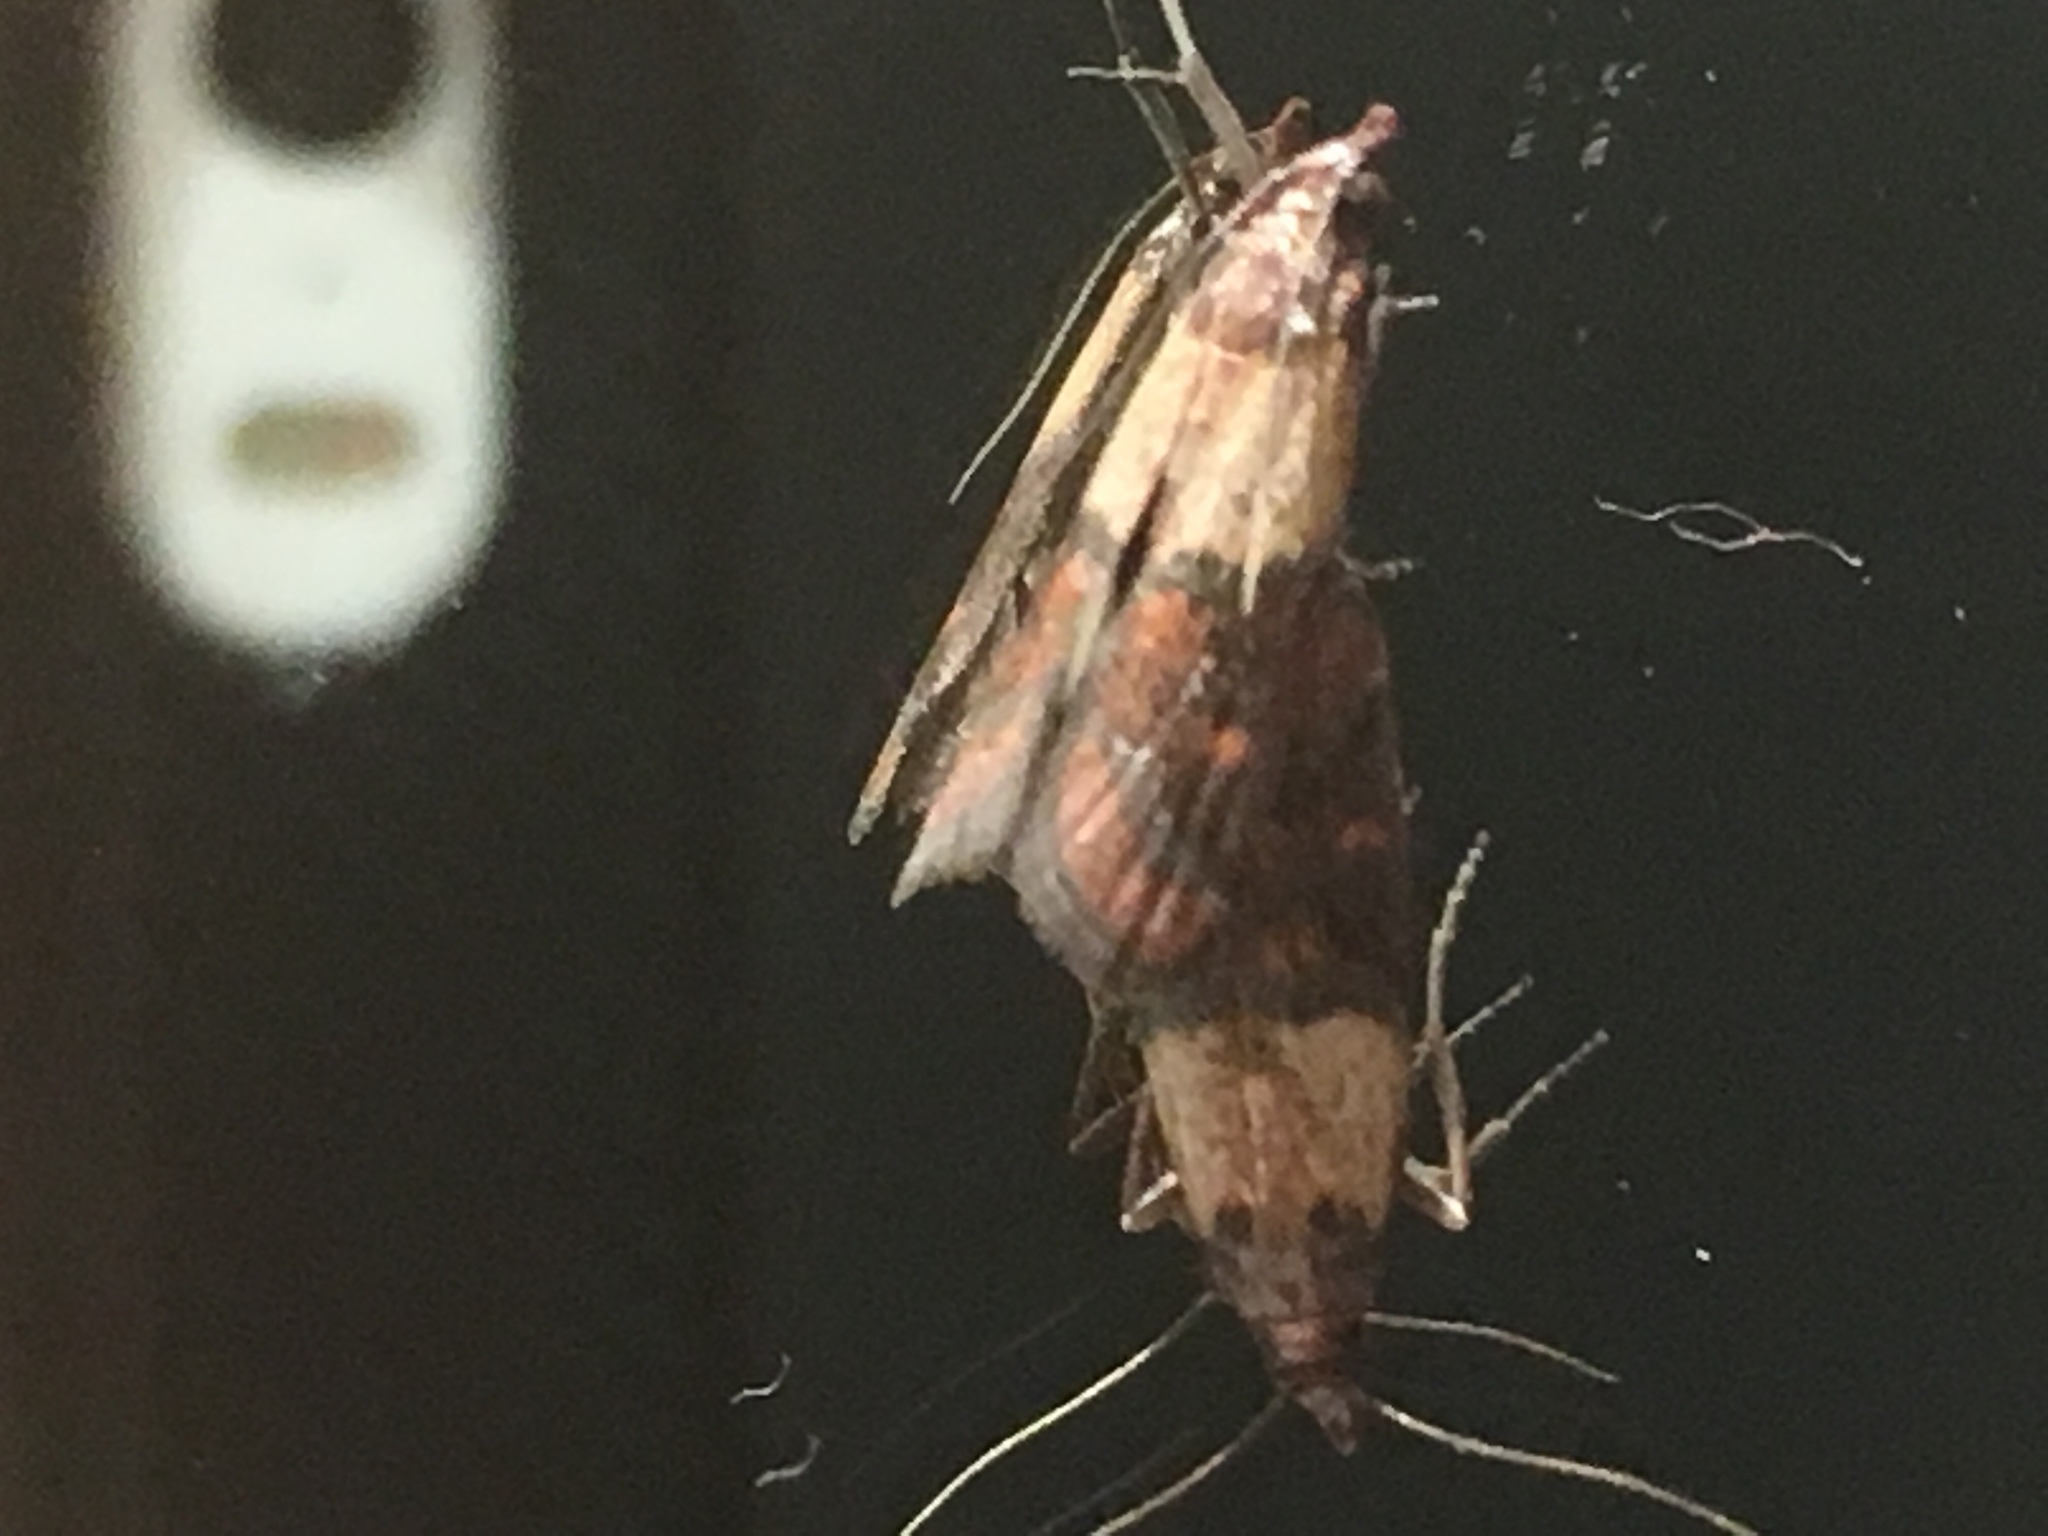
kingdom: Animalia
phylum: Arthropoda
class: Insecta
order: Lepidoptera
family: Pyralidae
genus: Plodia
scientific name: Plodia interpunctella
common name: Indian meal moth
